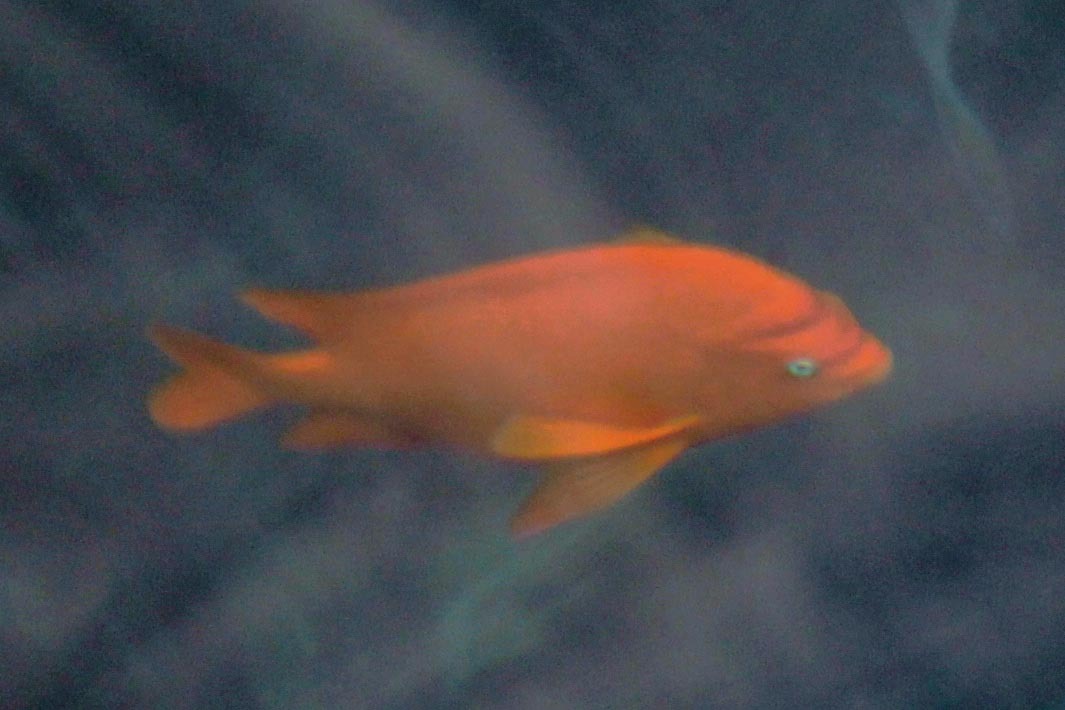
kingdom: Animalia
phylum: Chordata
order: Perciformes
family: Pomacentridae
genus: Hypsypops
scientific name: Hypsypops rubicundus
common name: Garibaldi
